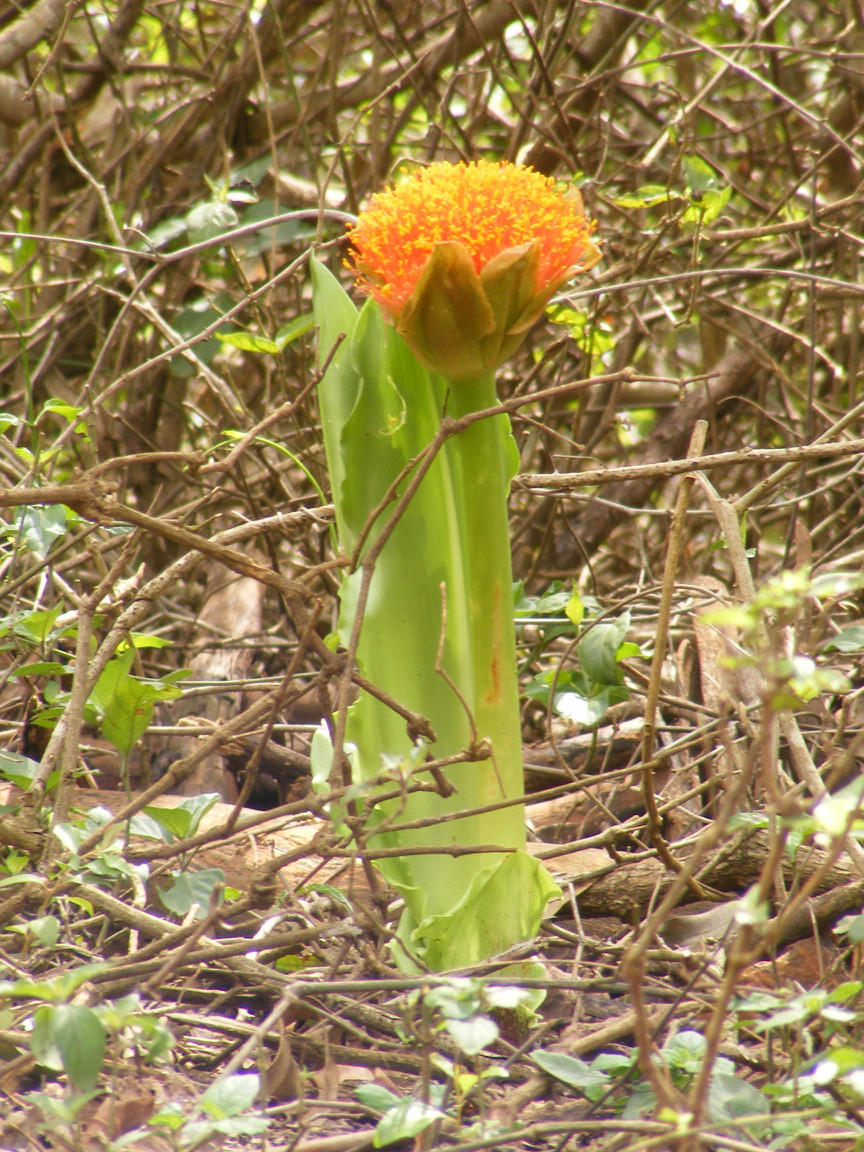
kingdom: Plantae
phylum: Tracheophyta
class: Liliopsida
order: Asparagales
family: Amaryllidaceae
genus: Scadoxus
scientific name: Scadoxus puniceus
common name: Royal-paintbrush
